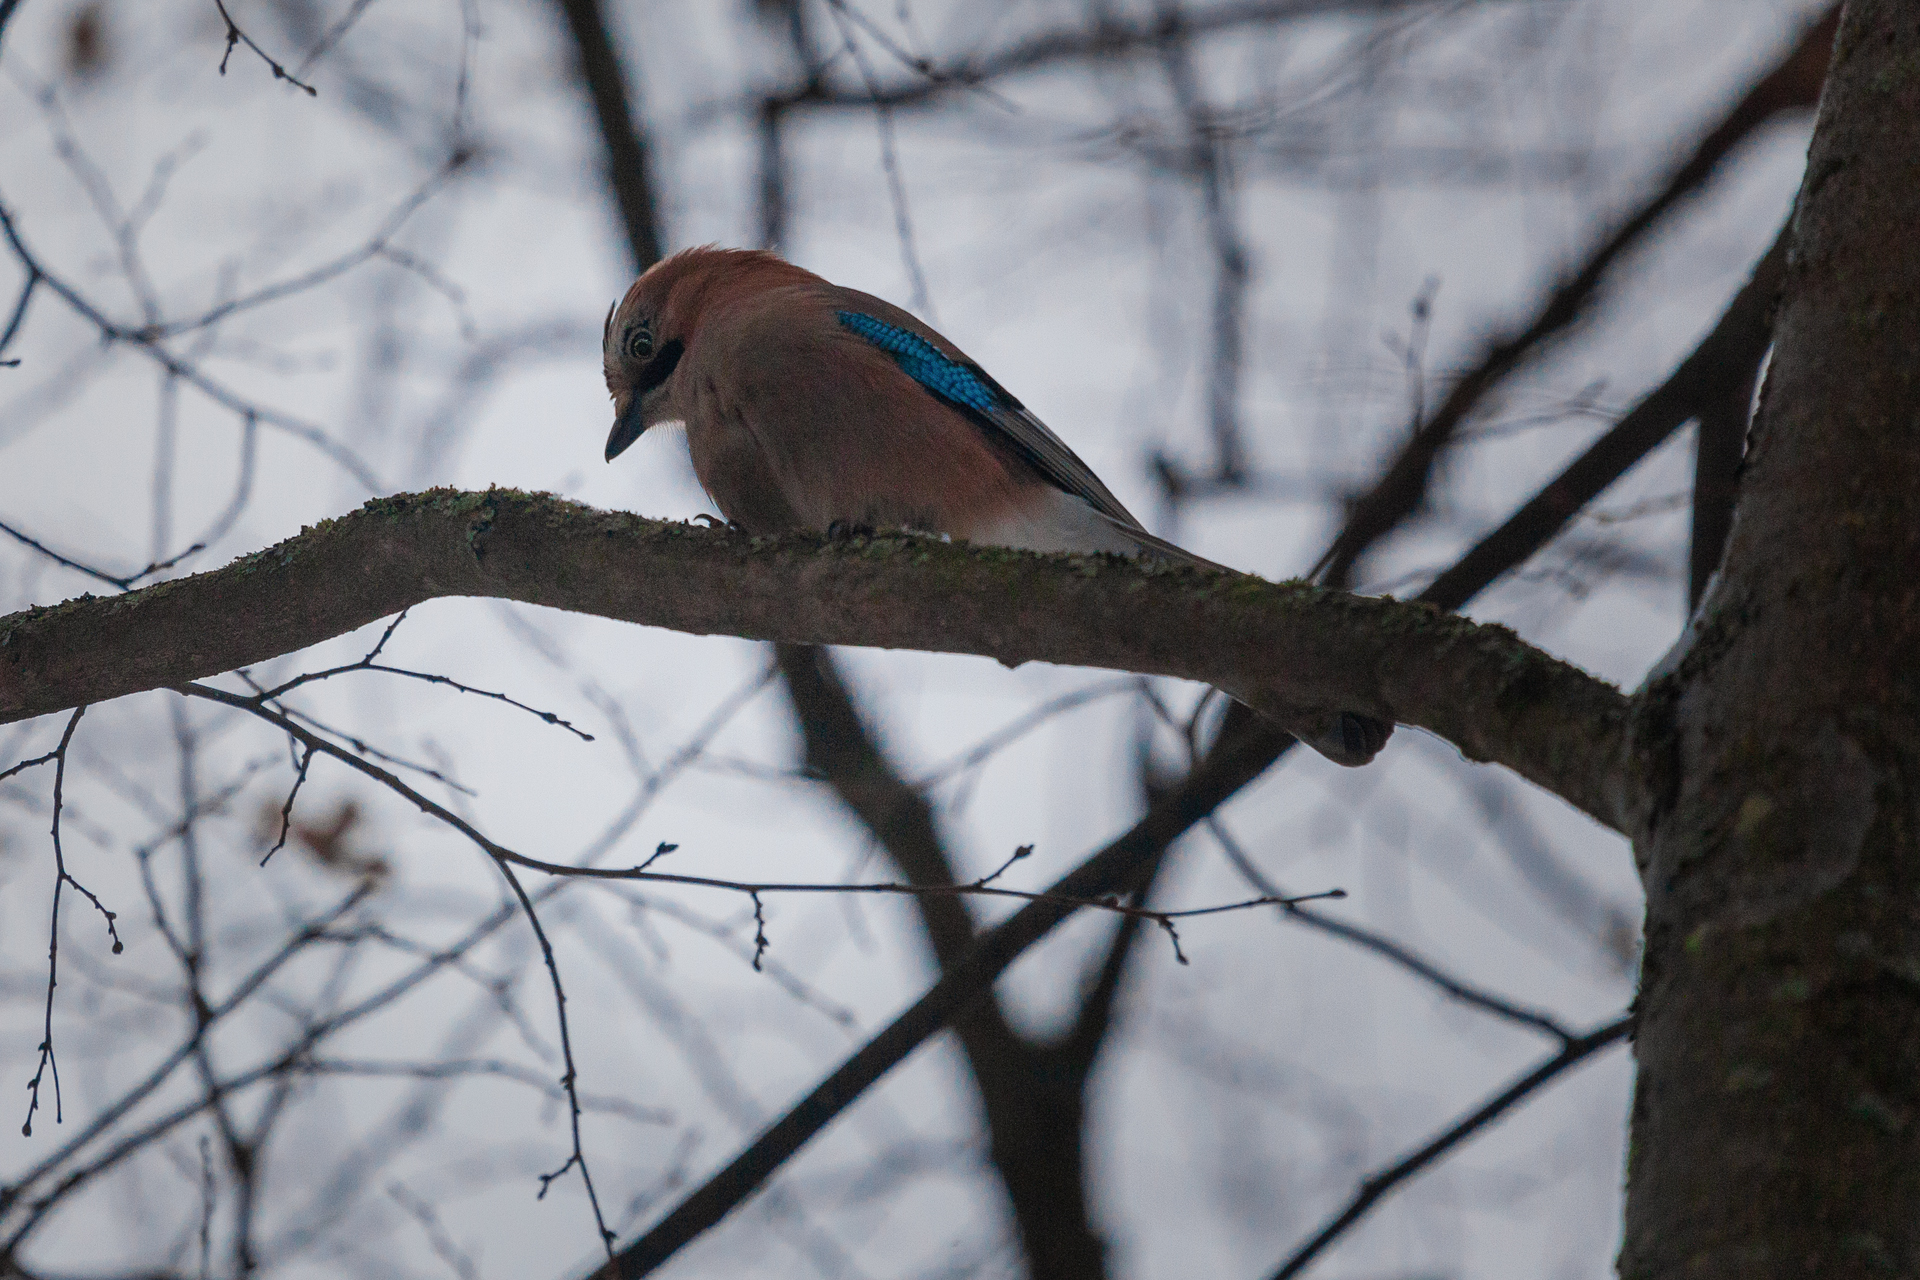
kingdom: Animalia
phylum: Chordata
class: Aves
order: Passeriformes
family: Corvidae
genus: Garrulus
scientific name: Garrulus glandarius
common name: Eurasian jay
